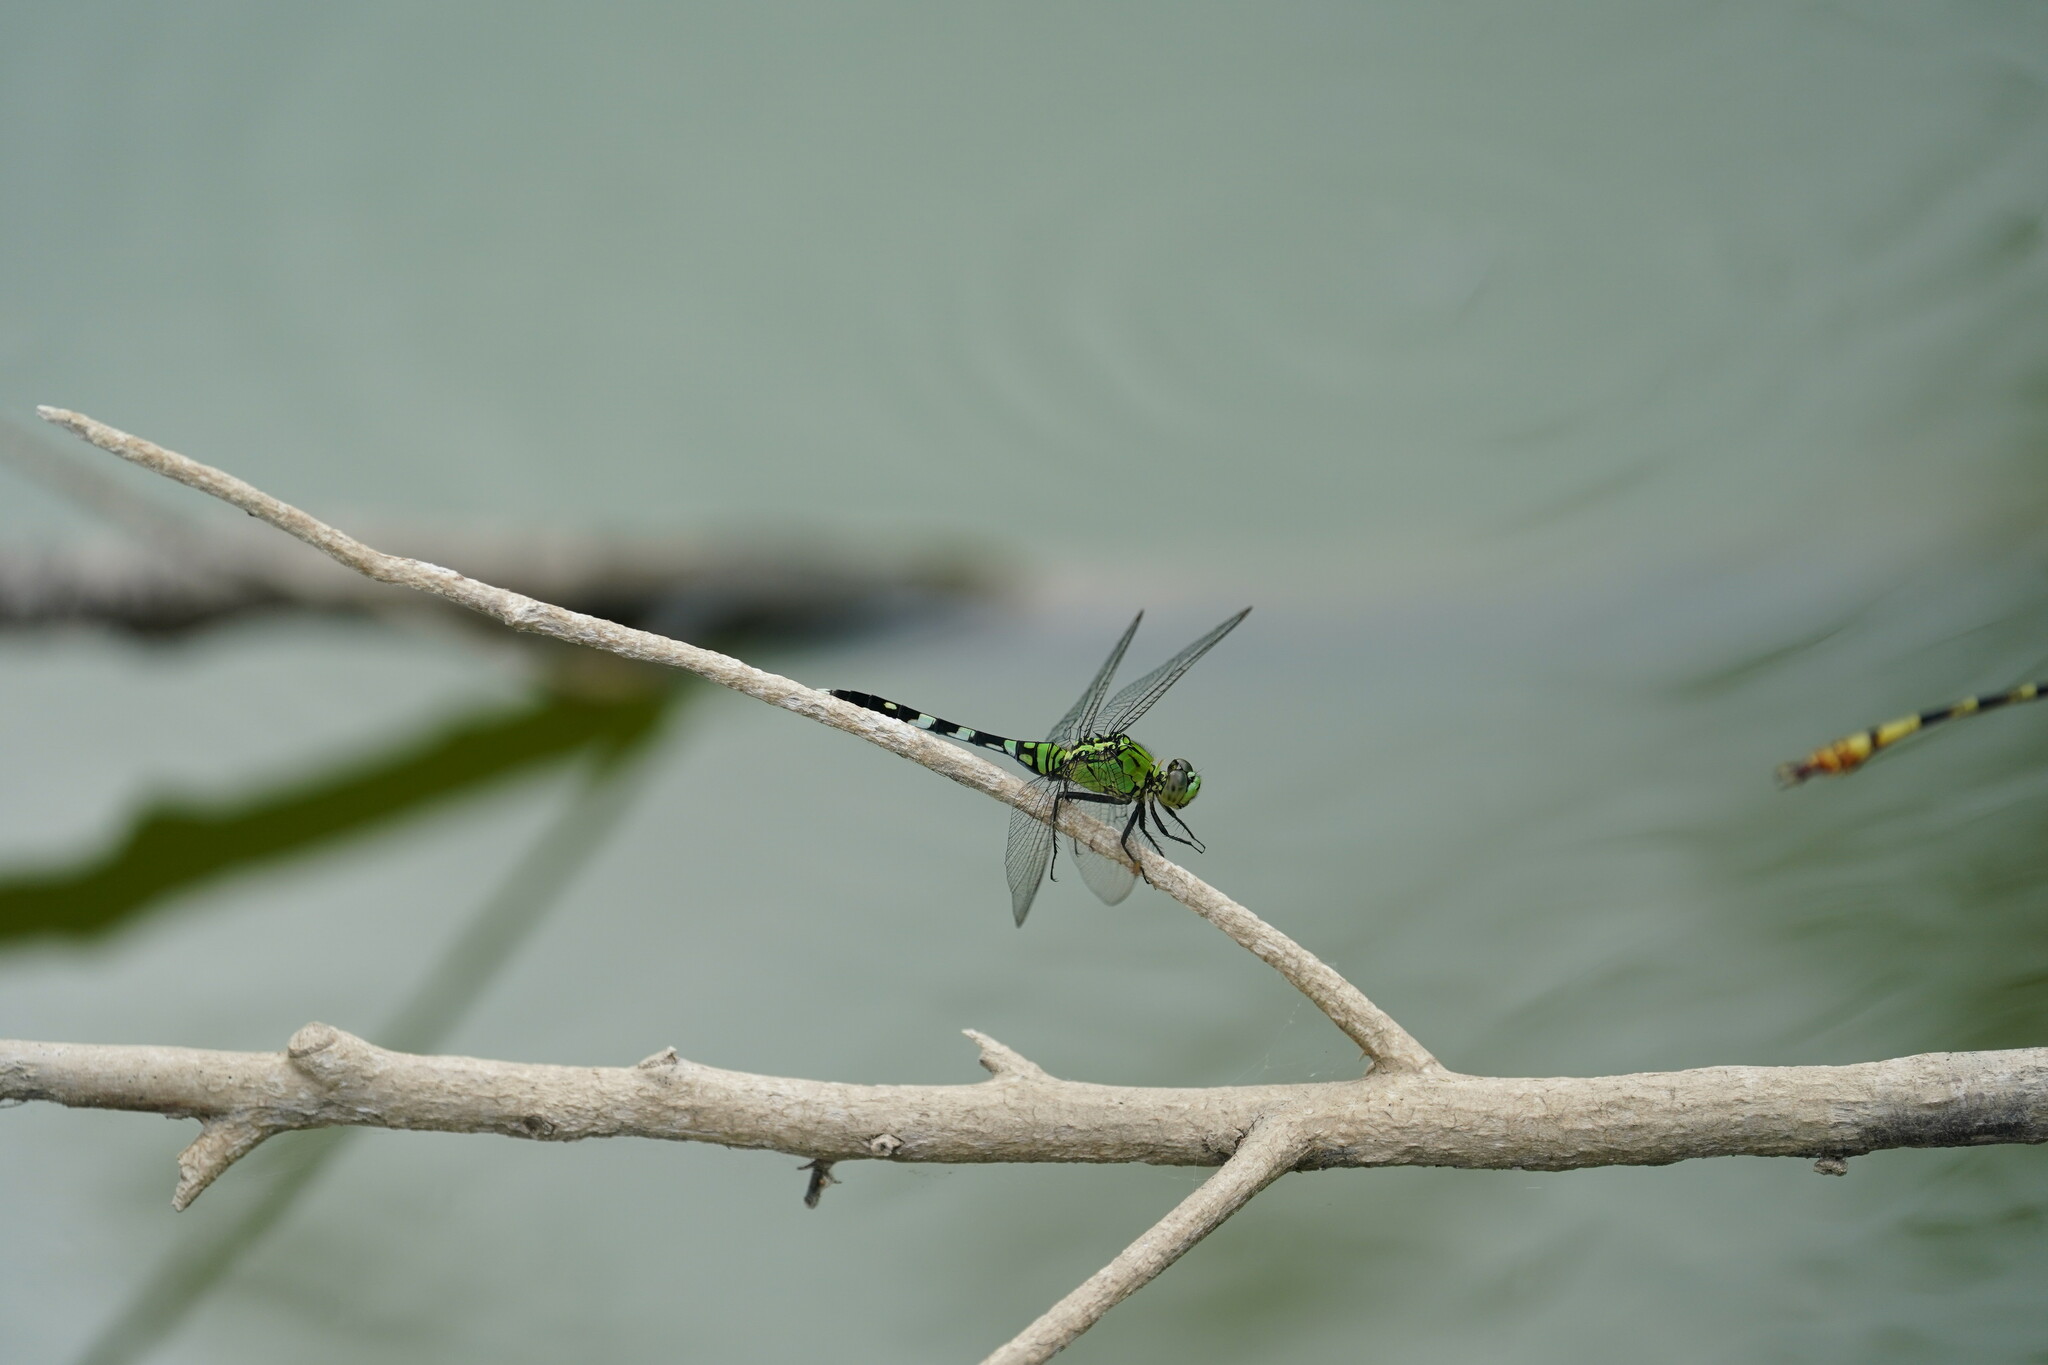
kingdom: Animalia
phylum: Arthropoda
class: Insecta
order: Odonata
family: Libellulidae
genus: Erythemis
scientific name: Erythemis simplicicollis
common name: Eastern pondhawk
